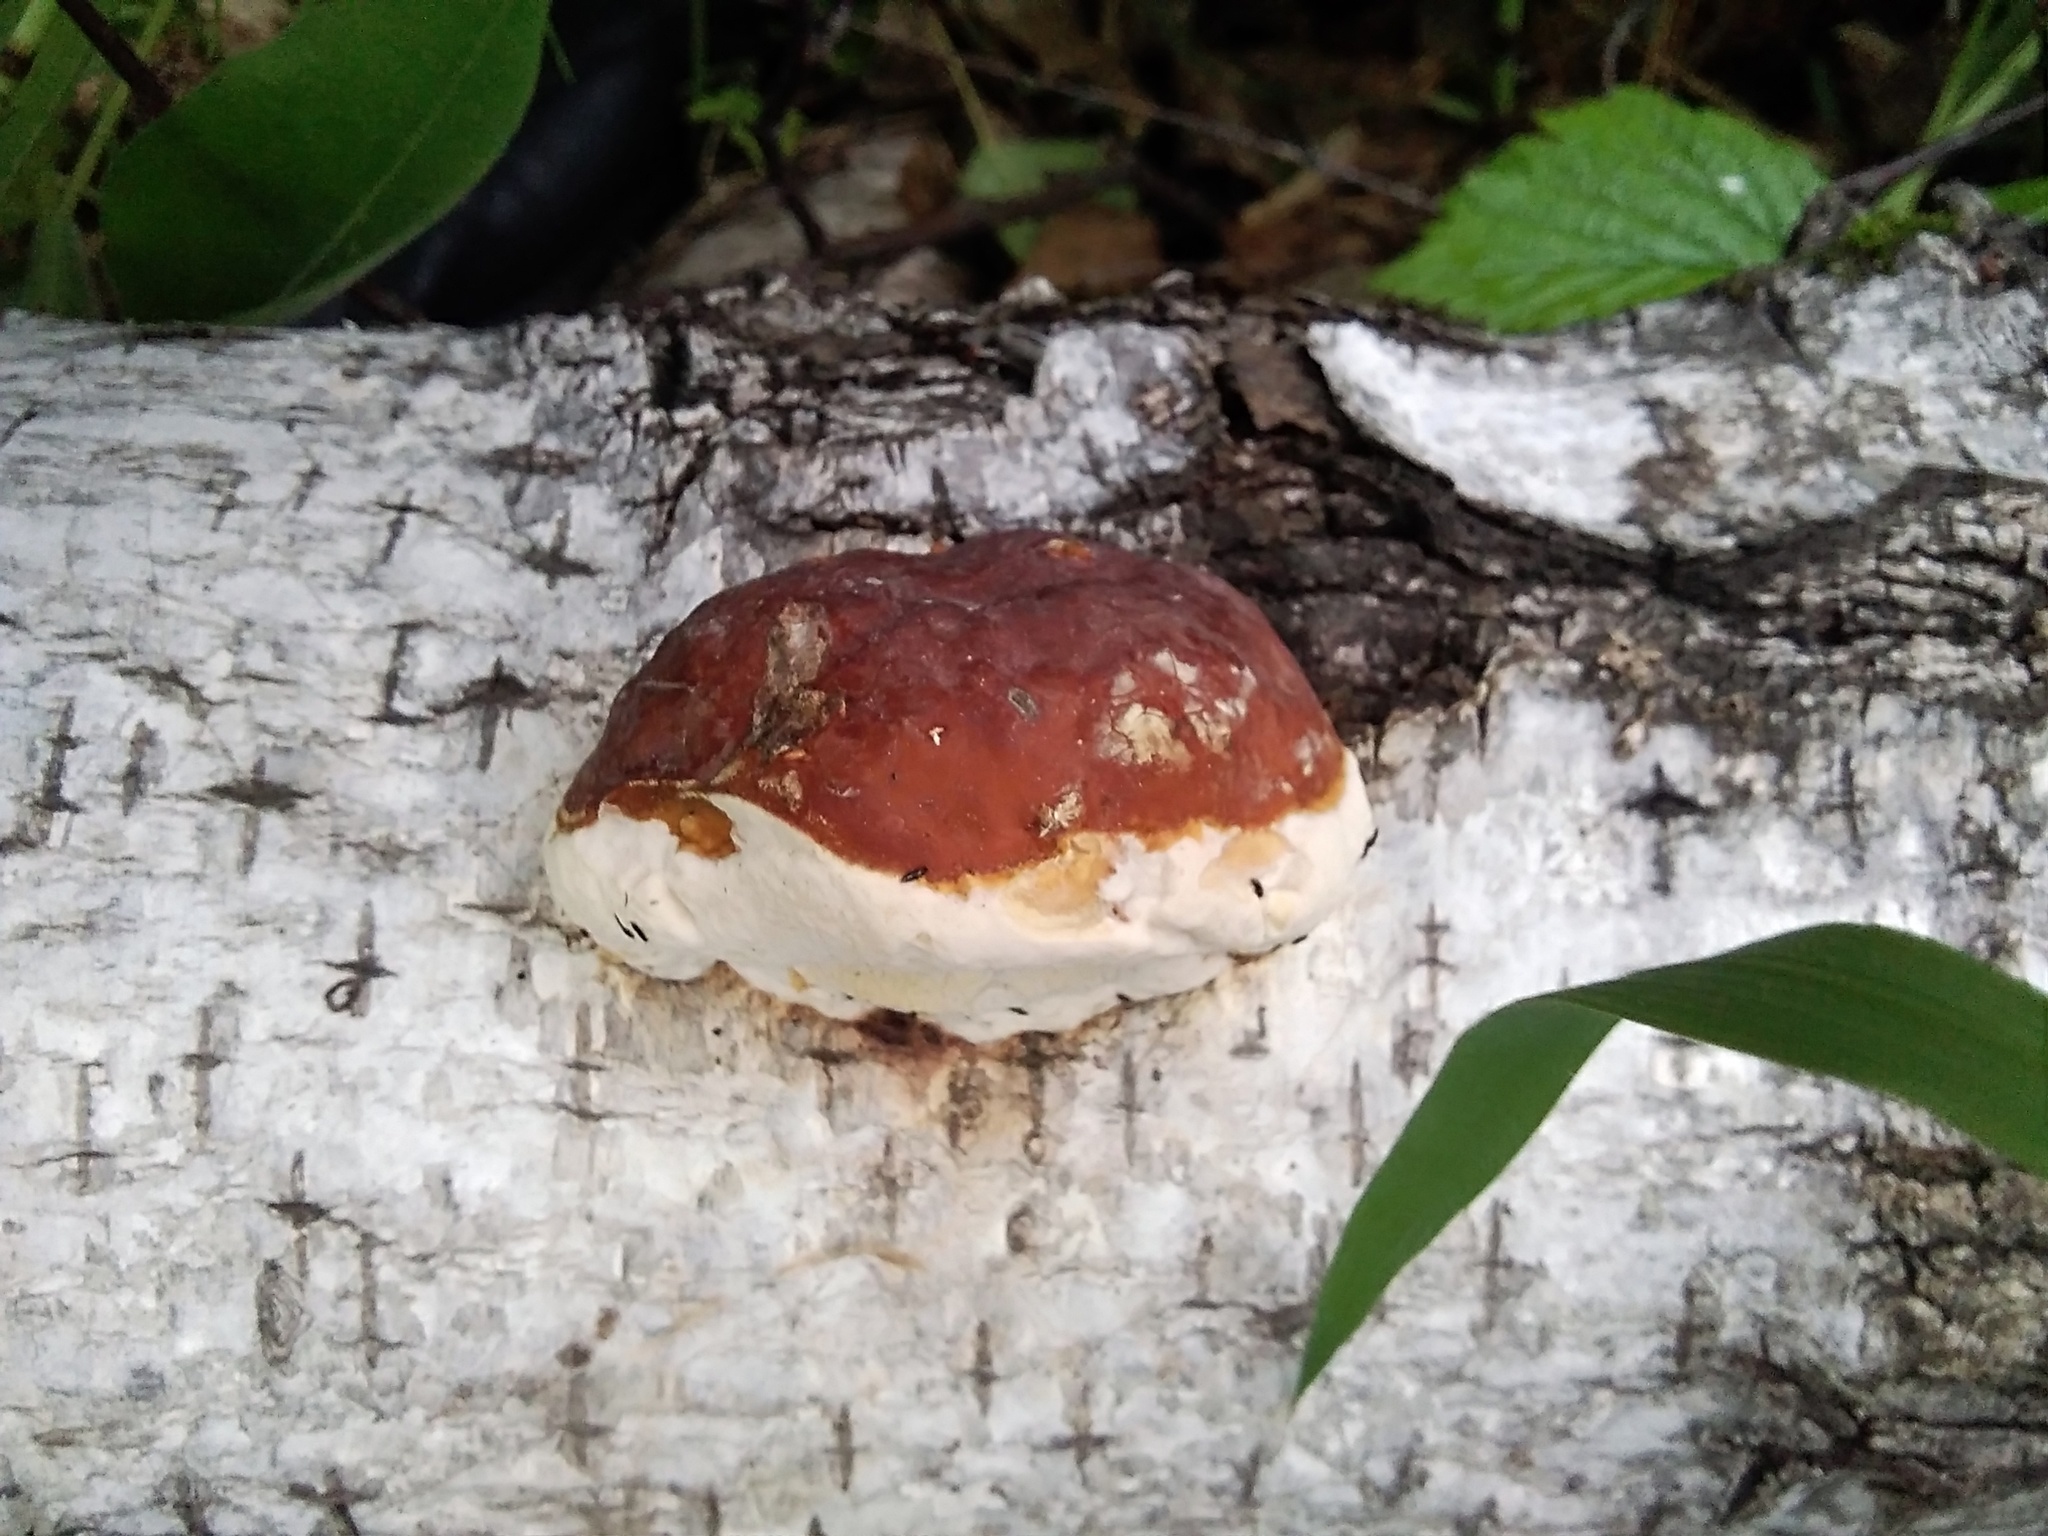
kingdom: Fungi
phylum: Basidiomycota
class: Agaricomycetes
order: Polyporales
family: Fomitopsidaceae
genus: Fomitopsis
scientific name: Fomitopsis pinicola
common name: Red-belted bracket
